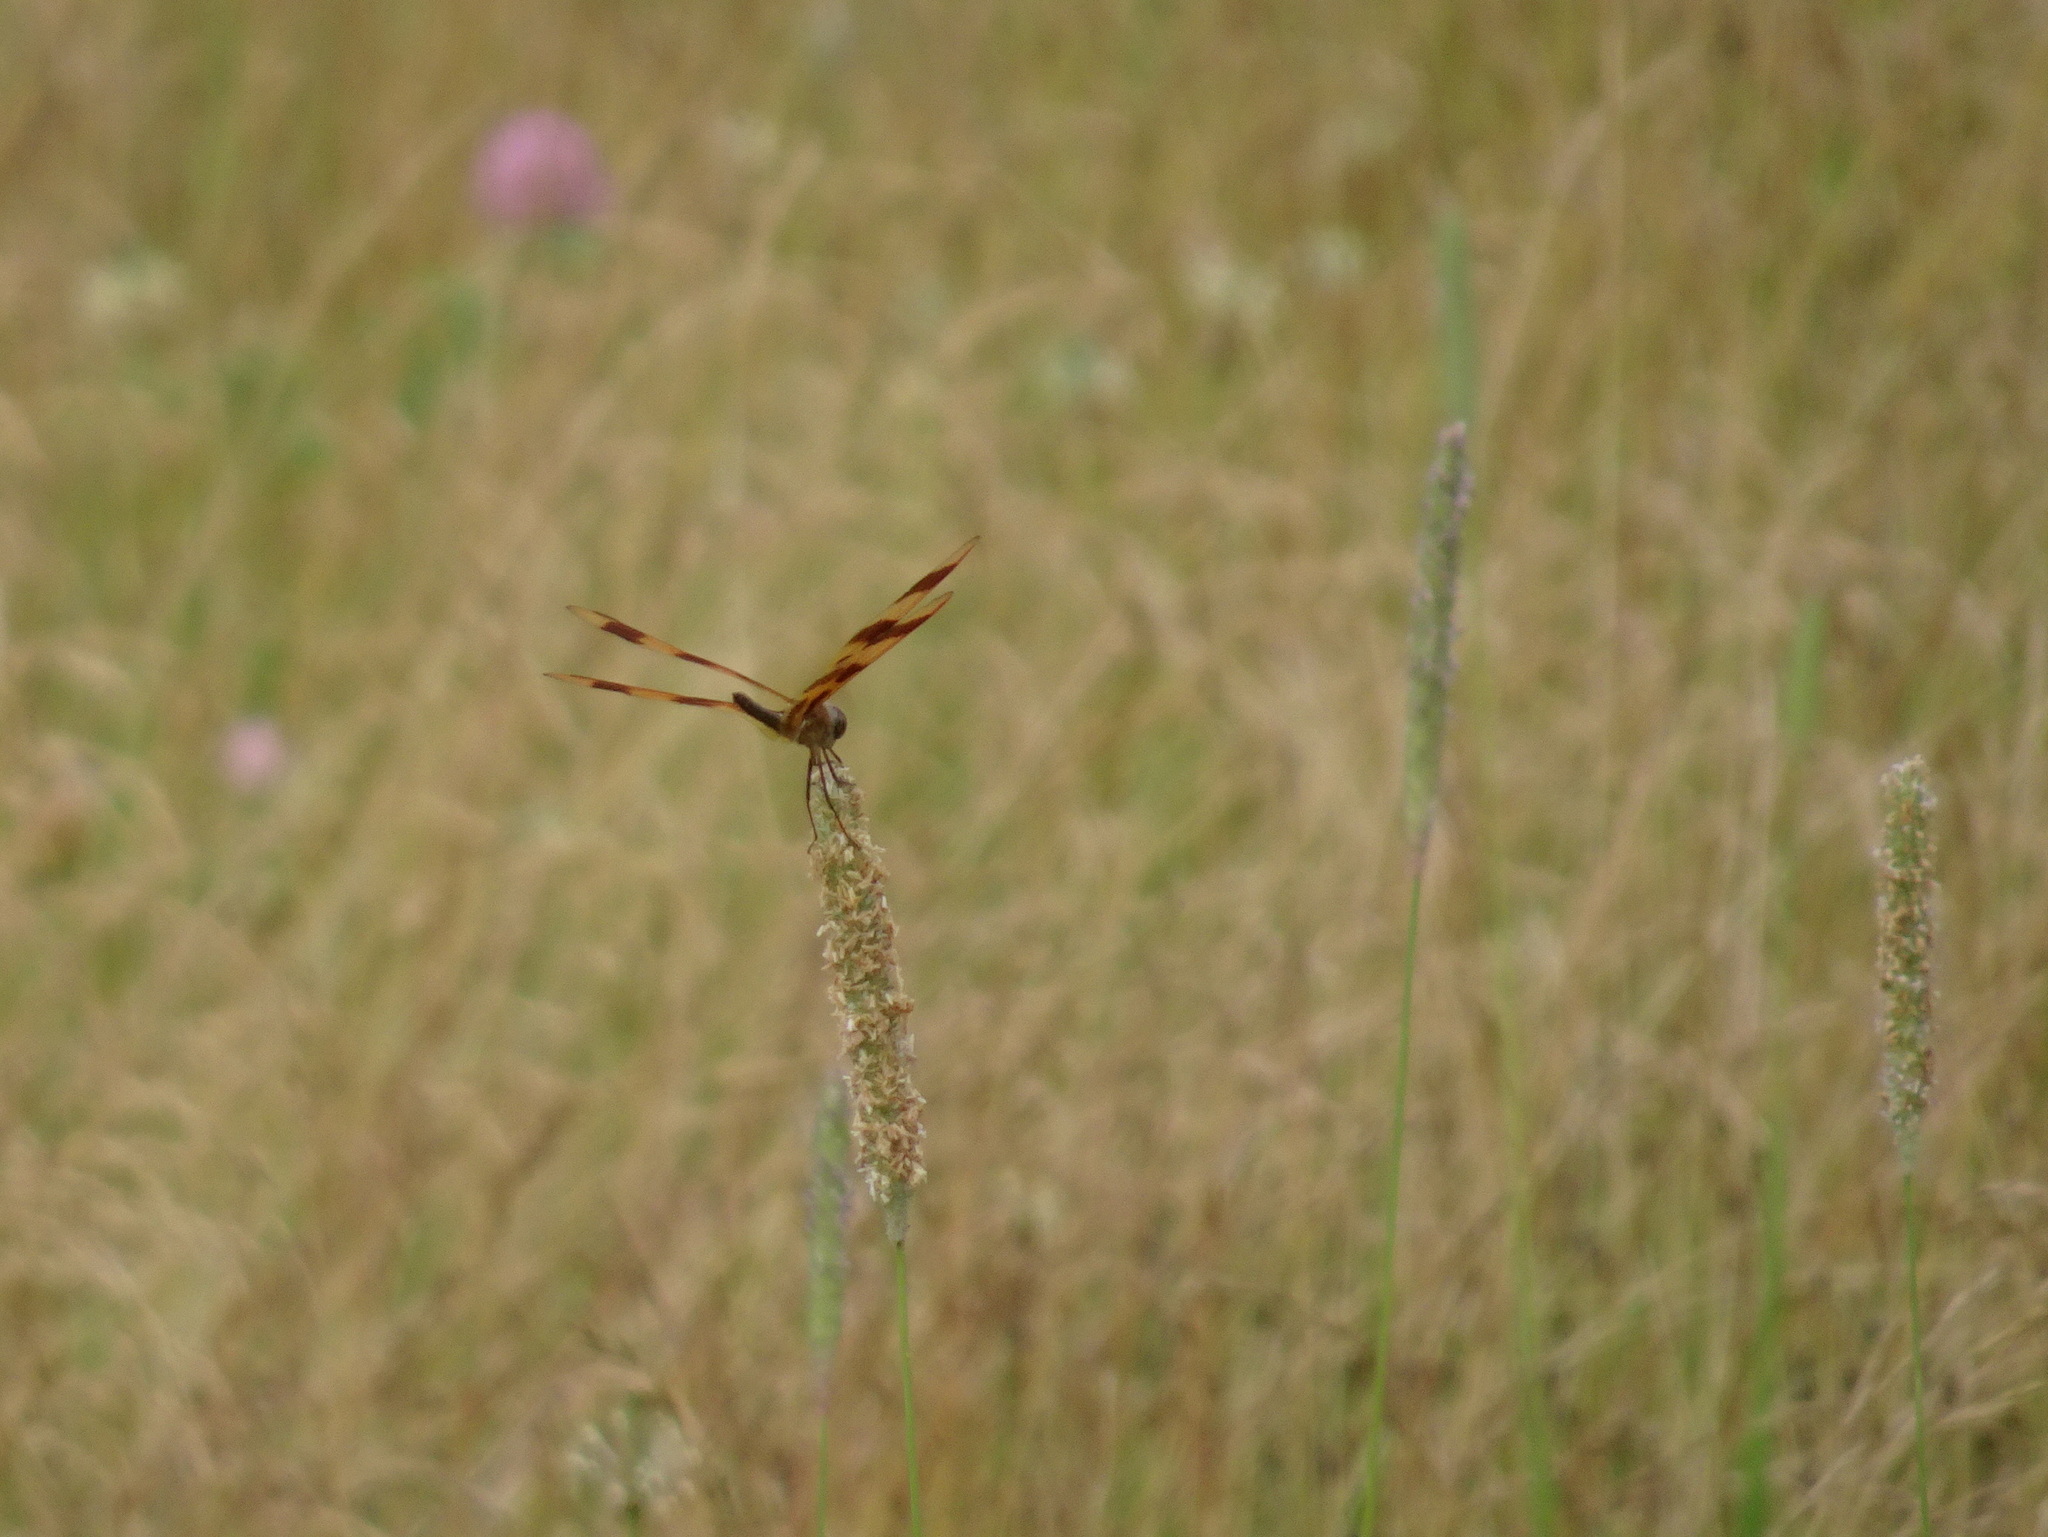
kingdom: Animalia
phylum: Arthropoda
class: Insecta
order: Odonata
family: Libellulidae
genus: Celithemis
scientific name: Celithemis eponina
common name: Halloween pennant
